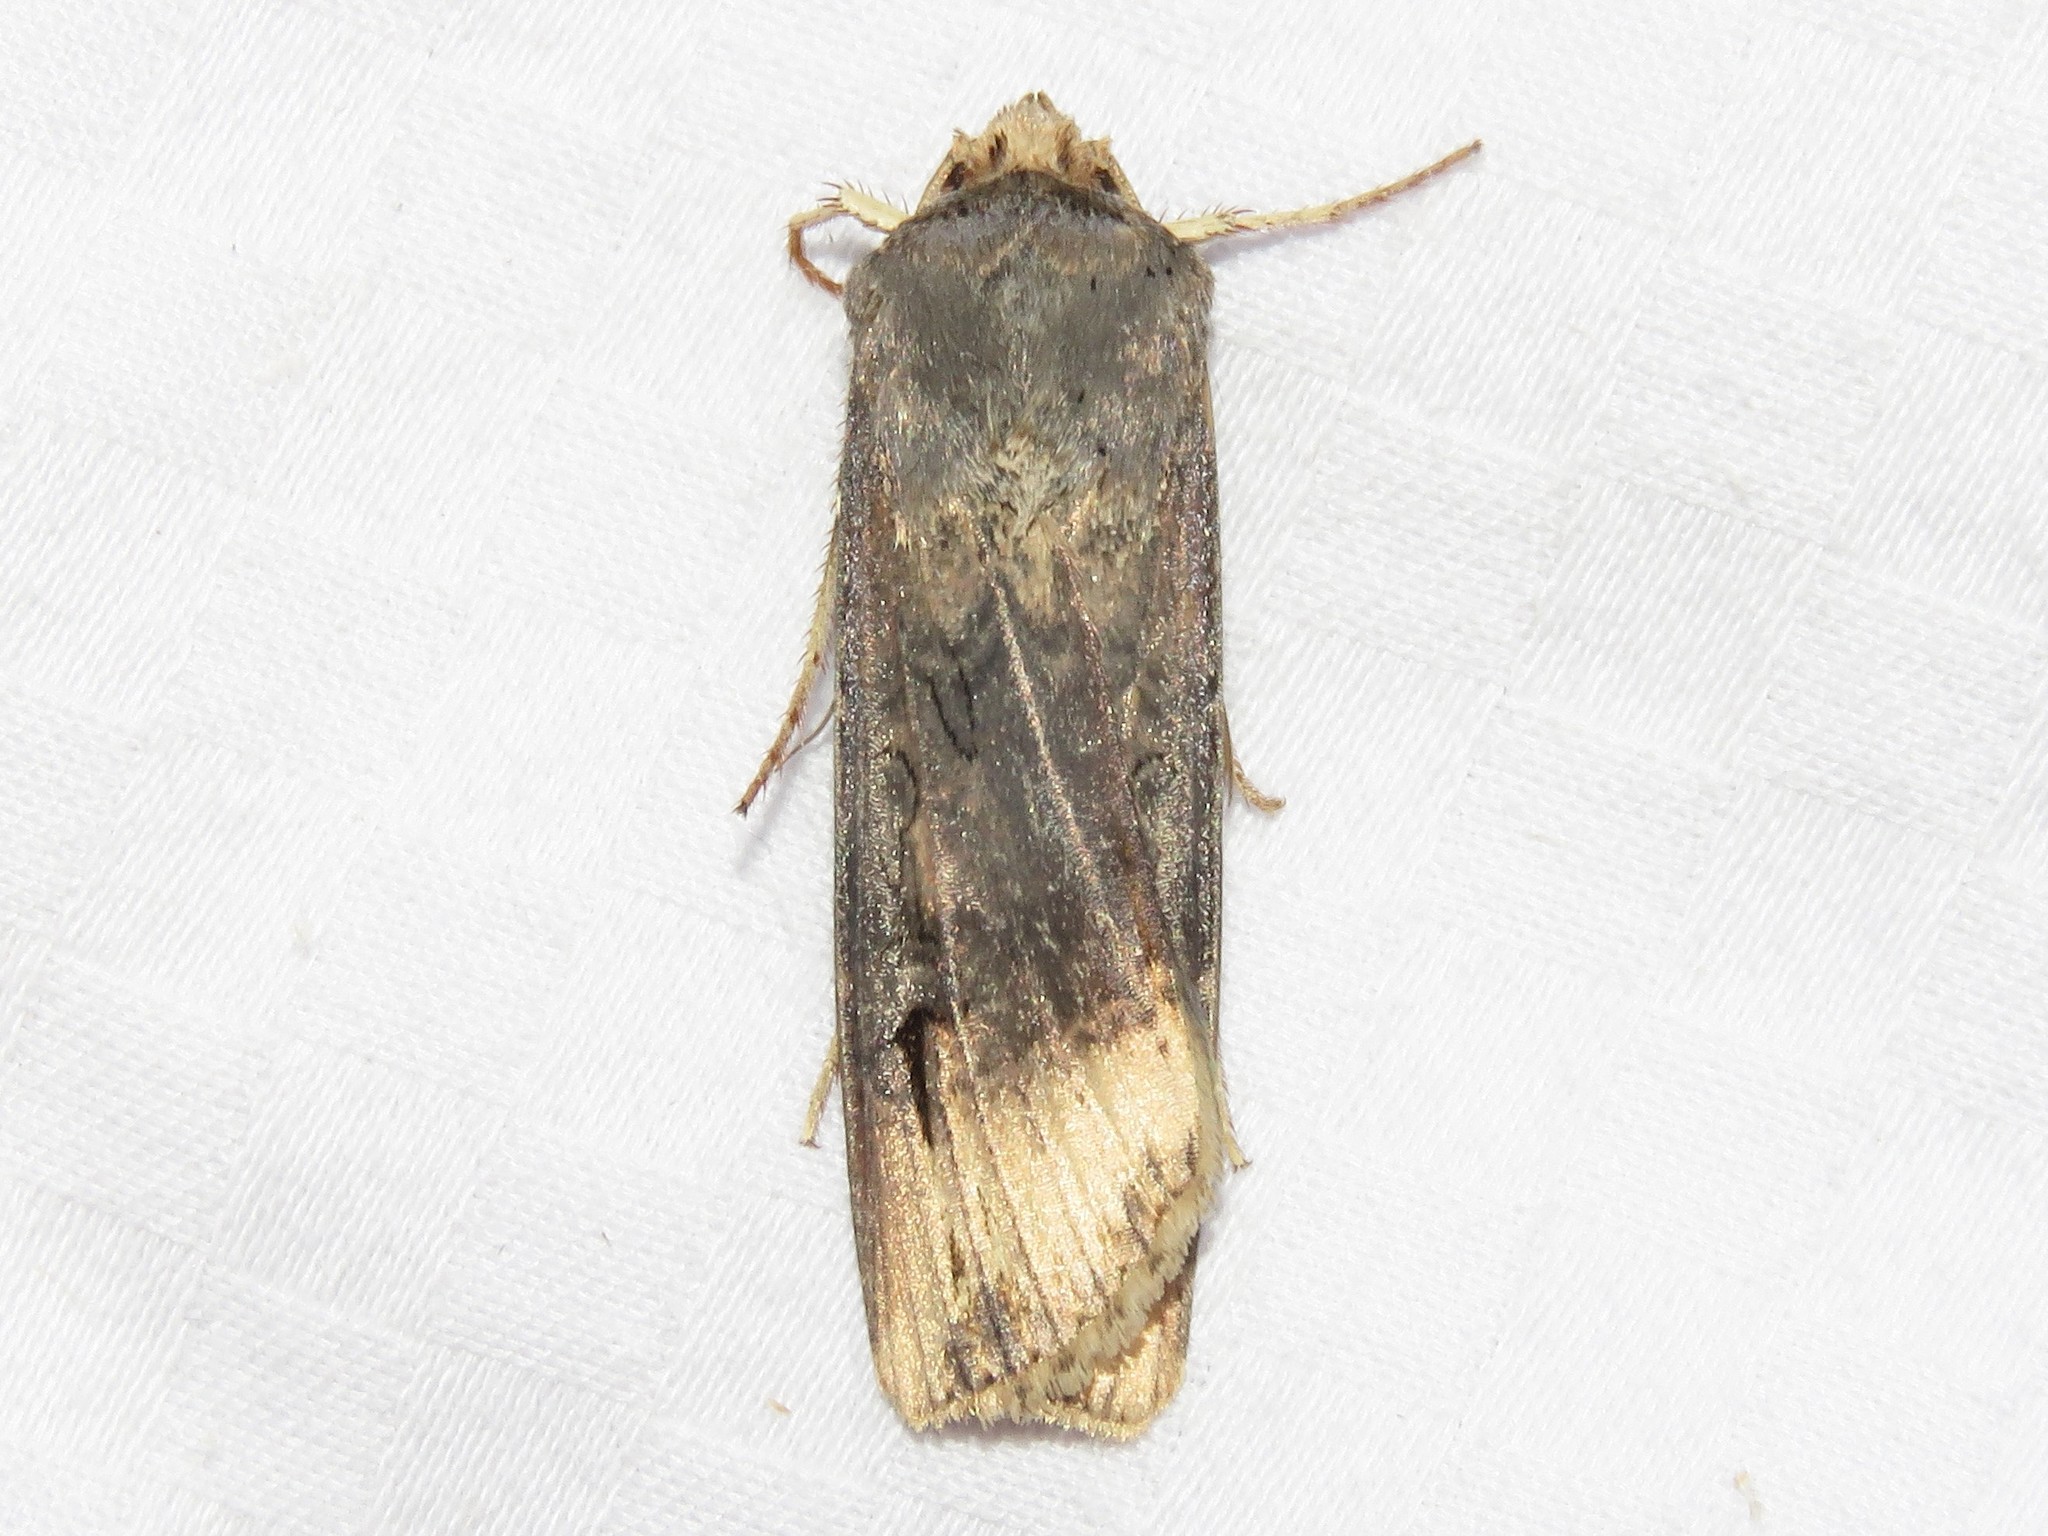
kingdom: Animalia
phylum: Arthropoda
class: Insecta
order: Lepidoptera
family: Noctuidae
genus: Agrotis
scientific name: Agrotis ipsilon
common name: Dark sword-grass
